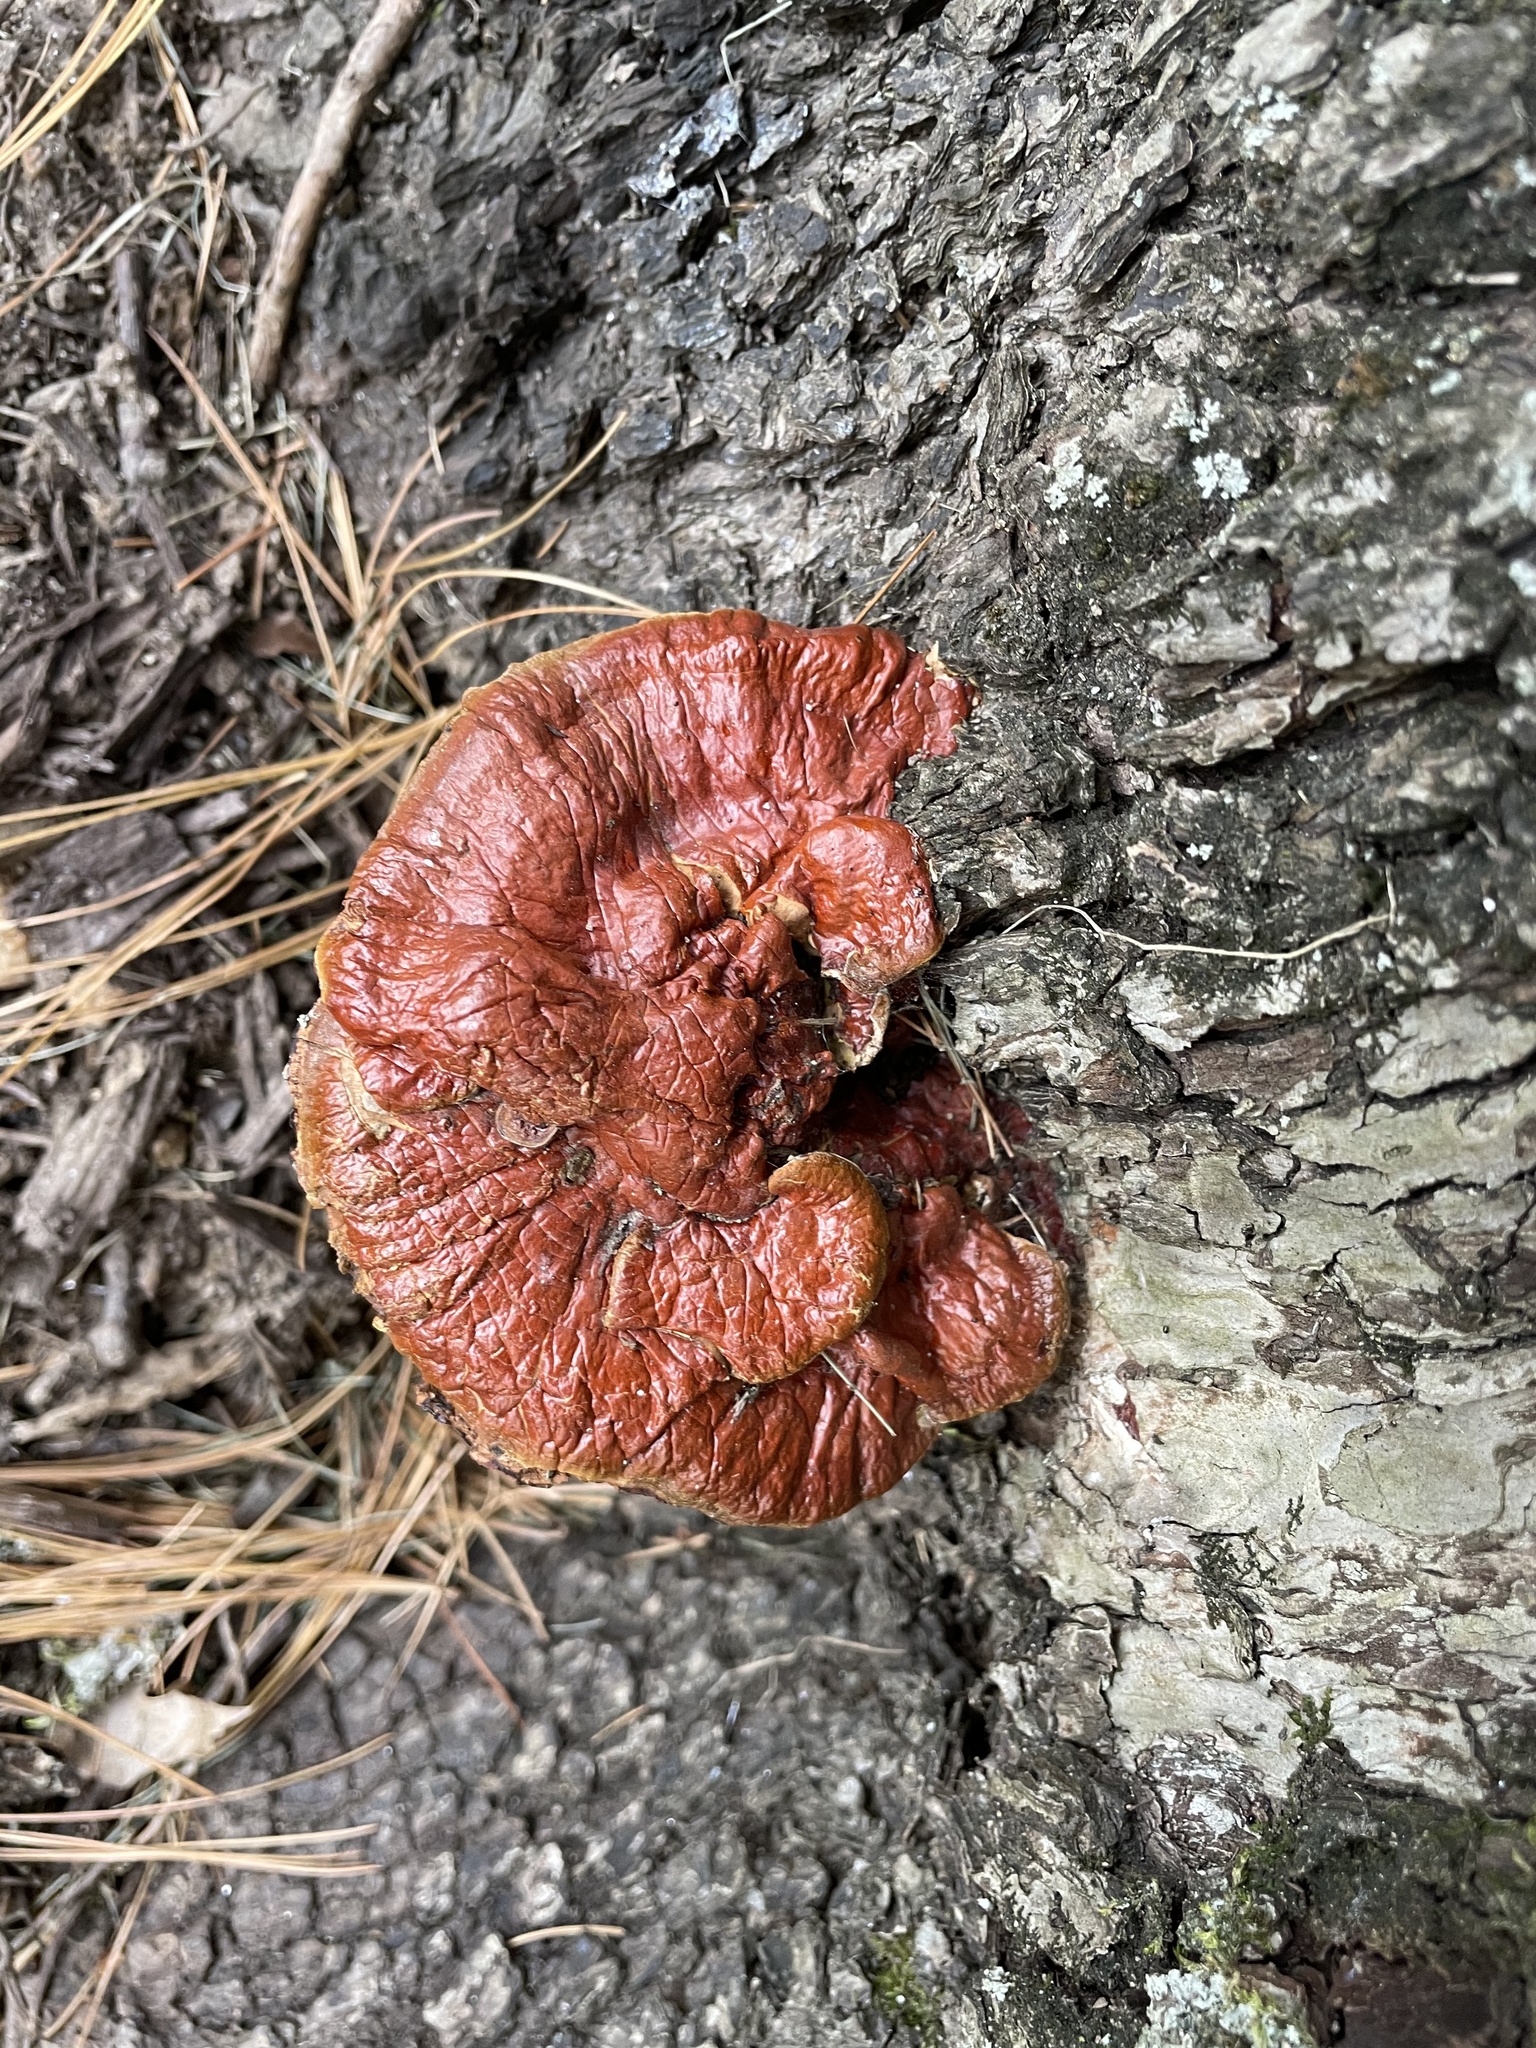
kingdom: Fungi
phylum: Basidiomycota
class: Agaricomycetes
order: Polyporales
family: Polyporaceae
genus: Ganoderma
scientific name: Ganoderma resinaceum
